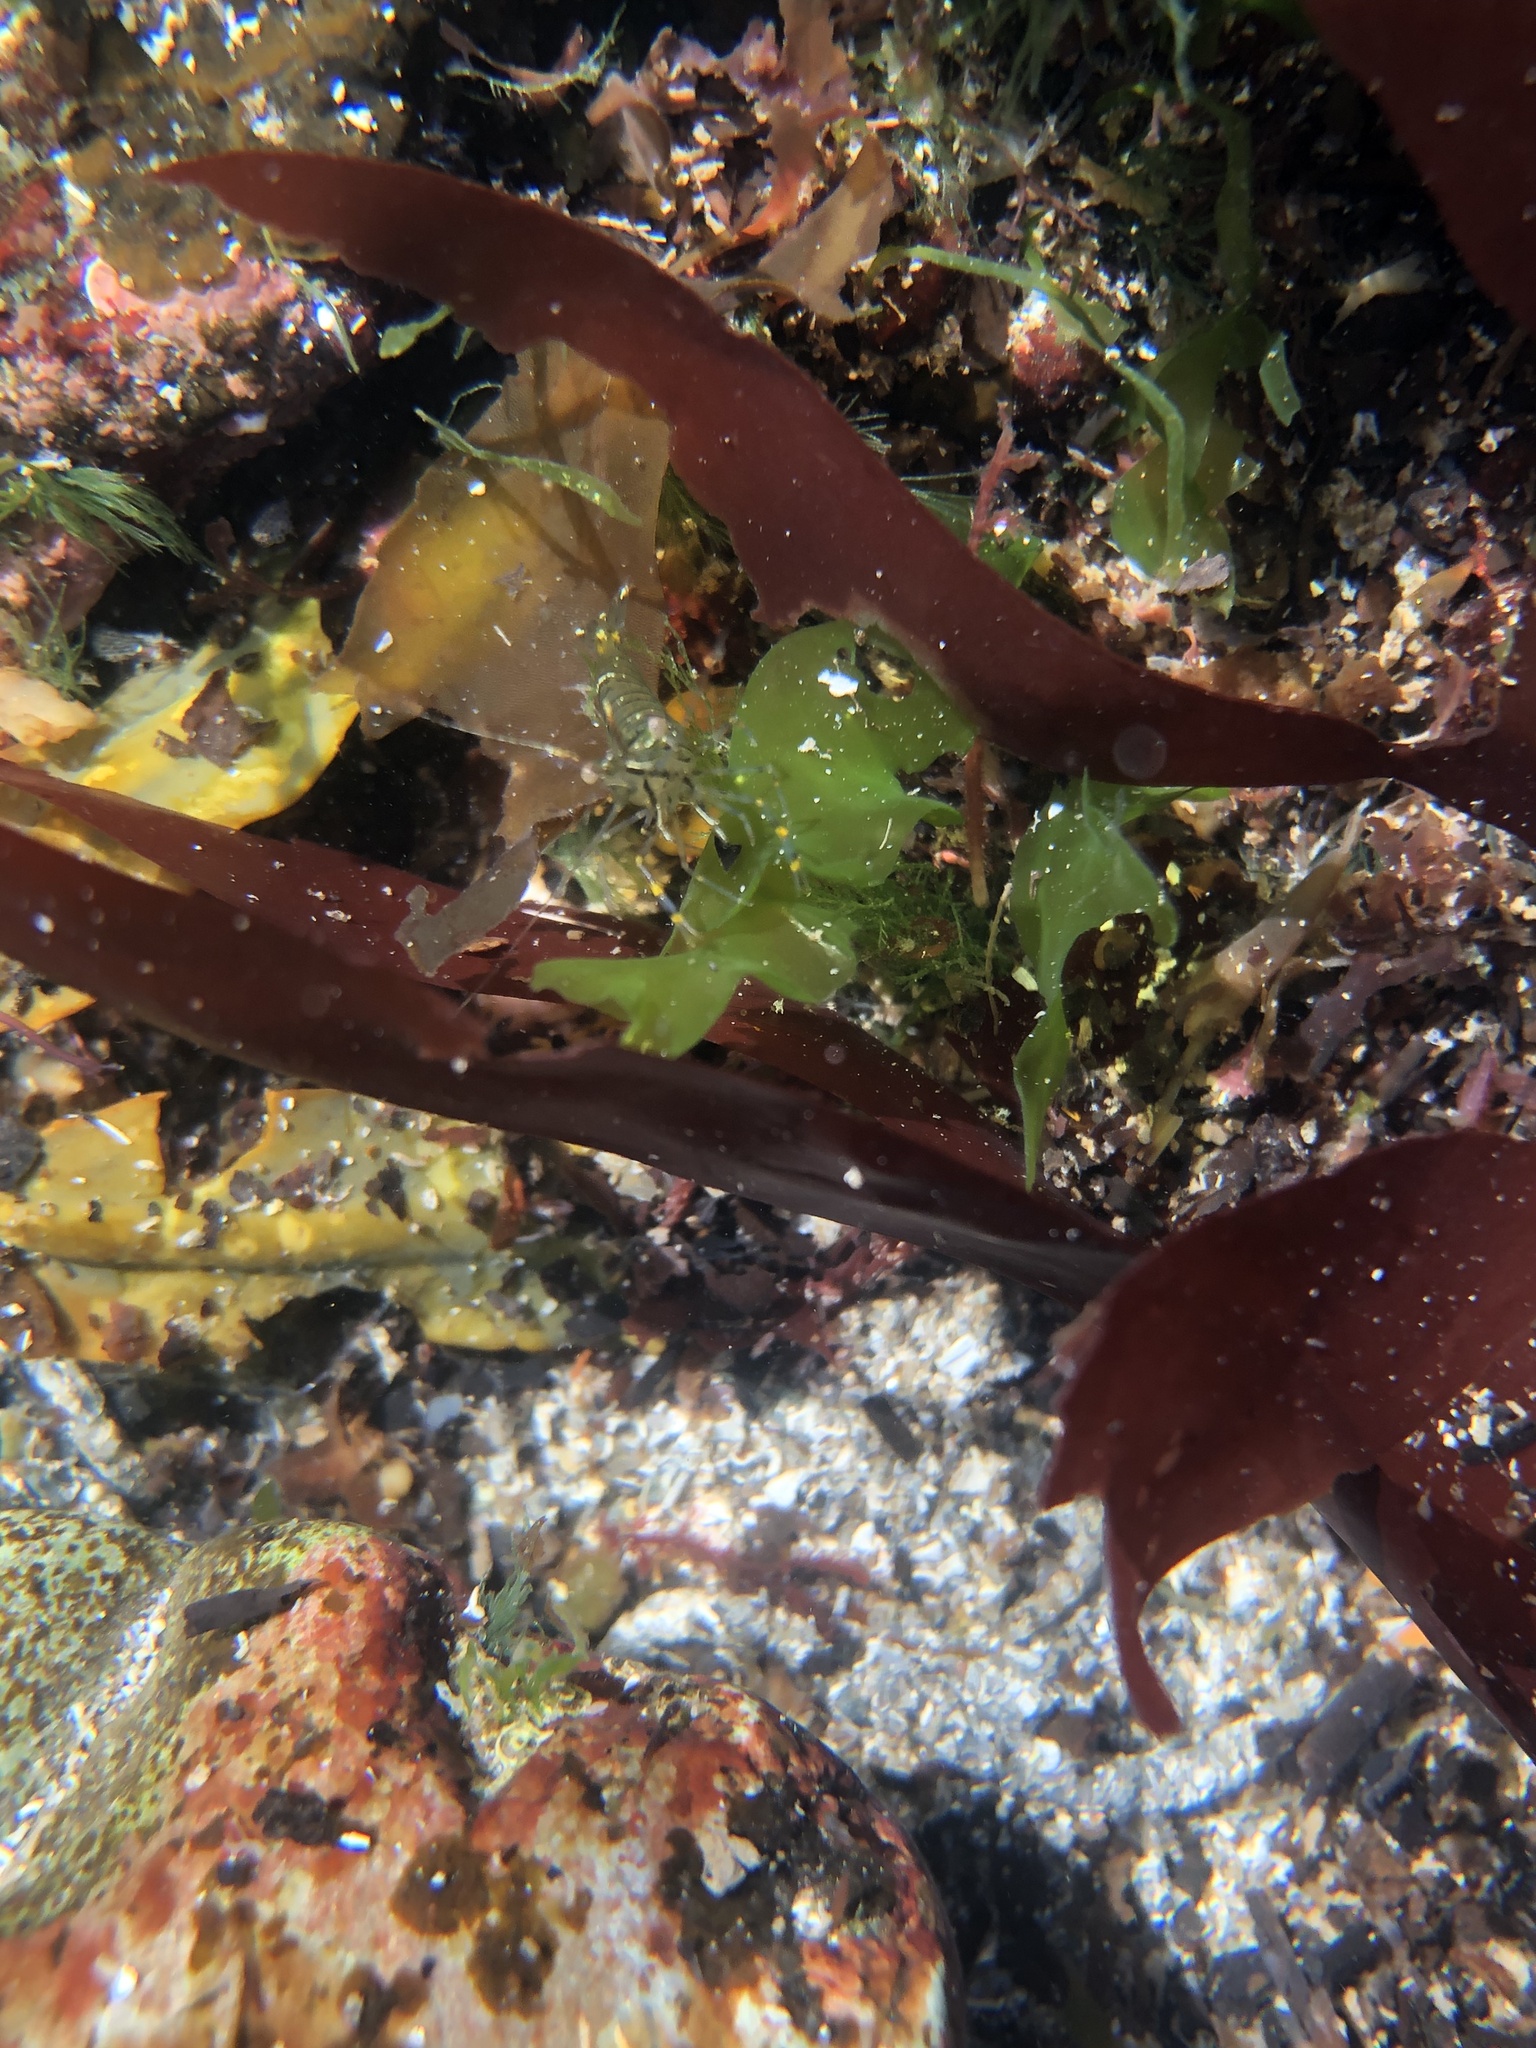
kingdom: Animalia
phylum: Arthropoda
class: Malacostraca
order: Decapoda
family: Palaemonidae
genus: Palaemon
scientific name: Palaemon serratus
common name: Common prawn
